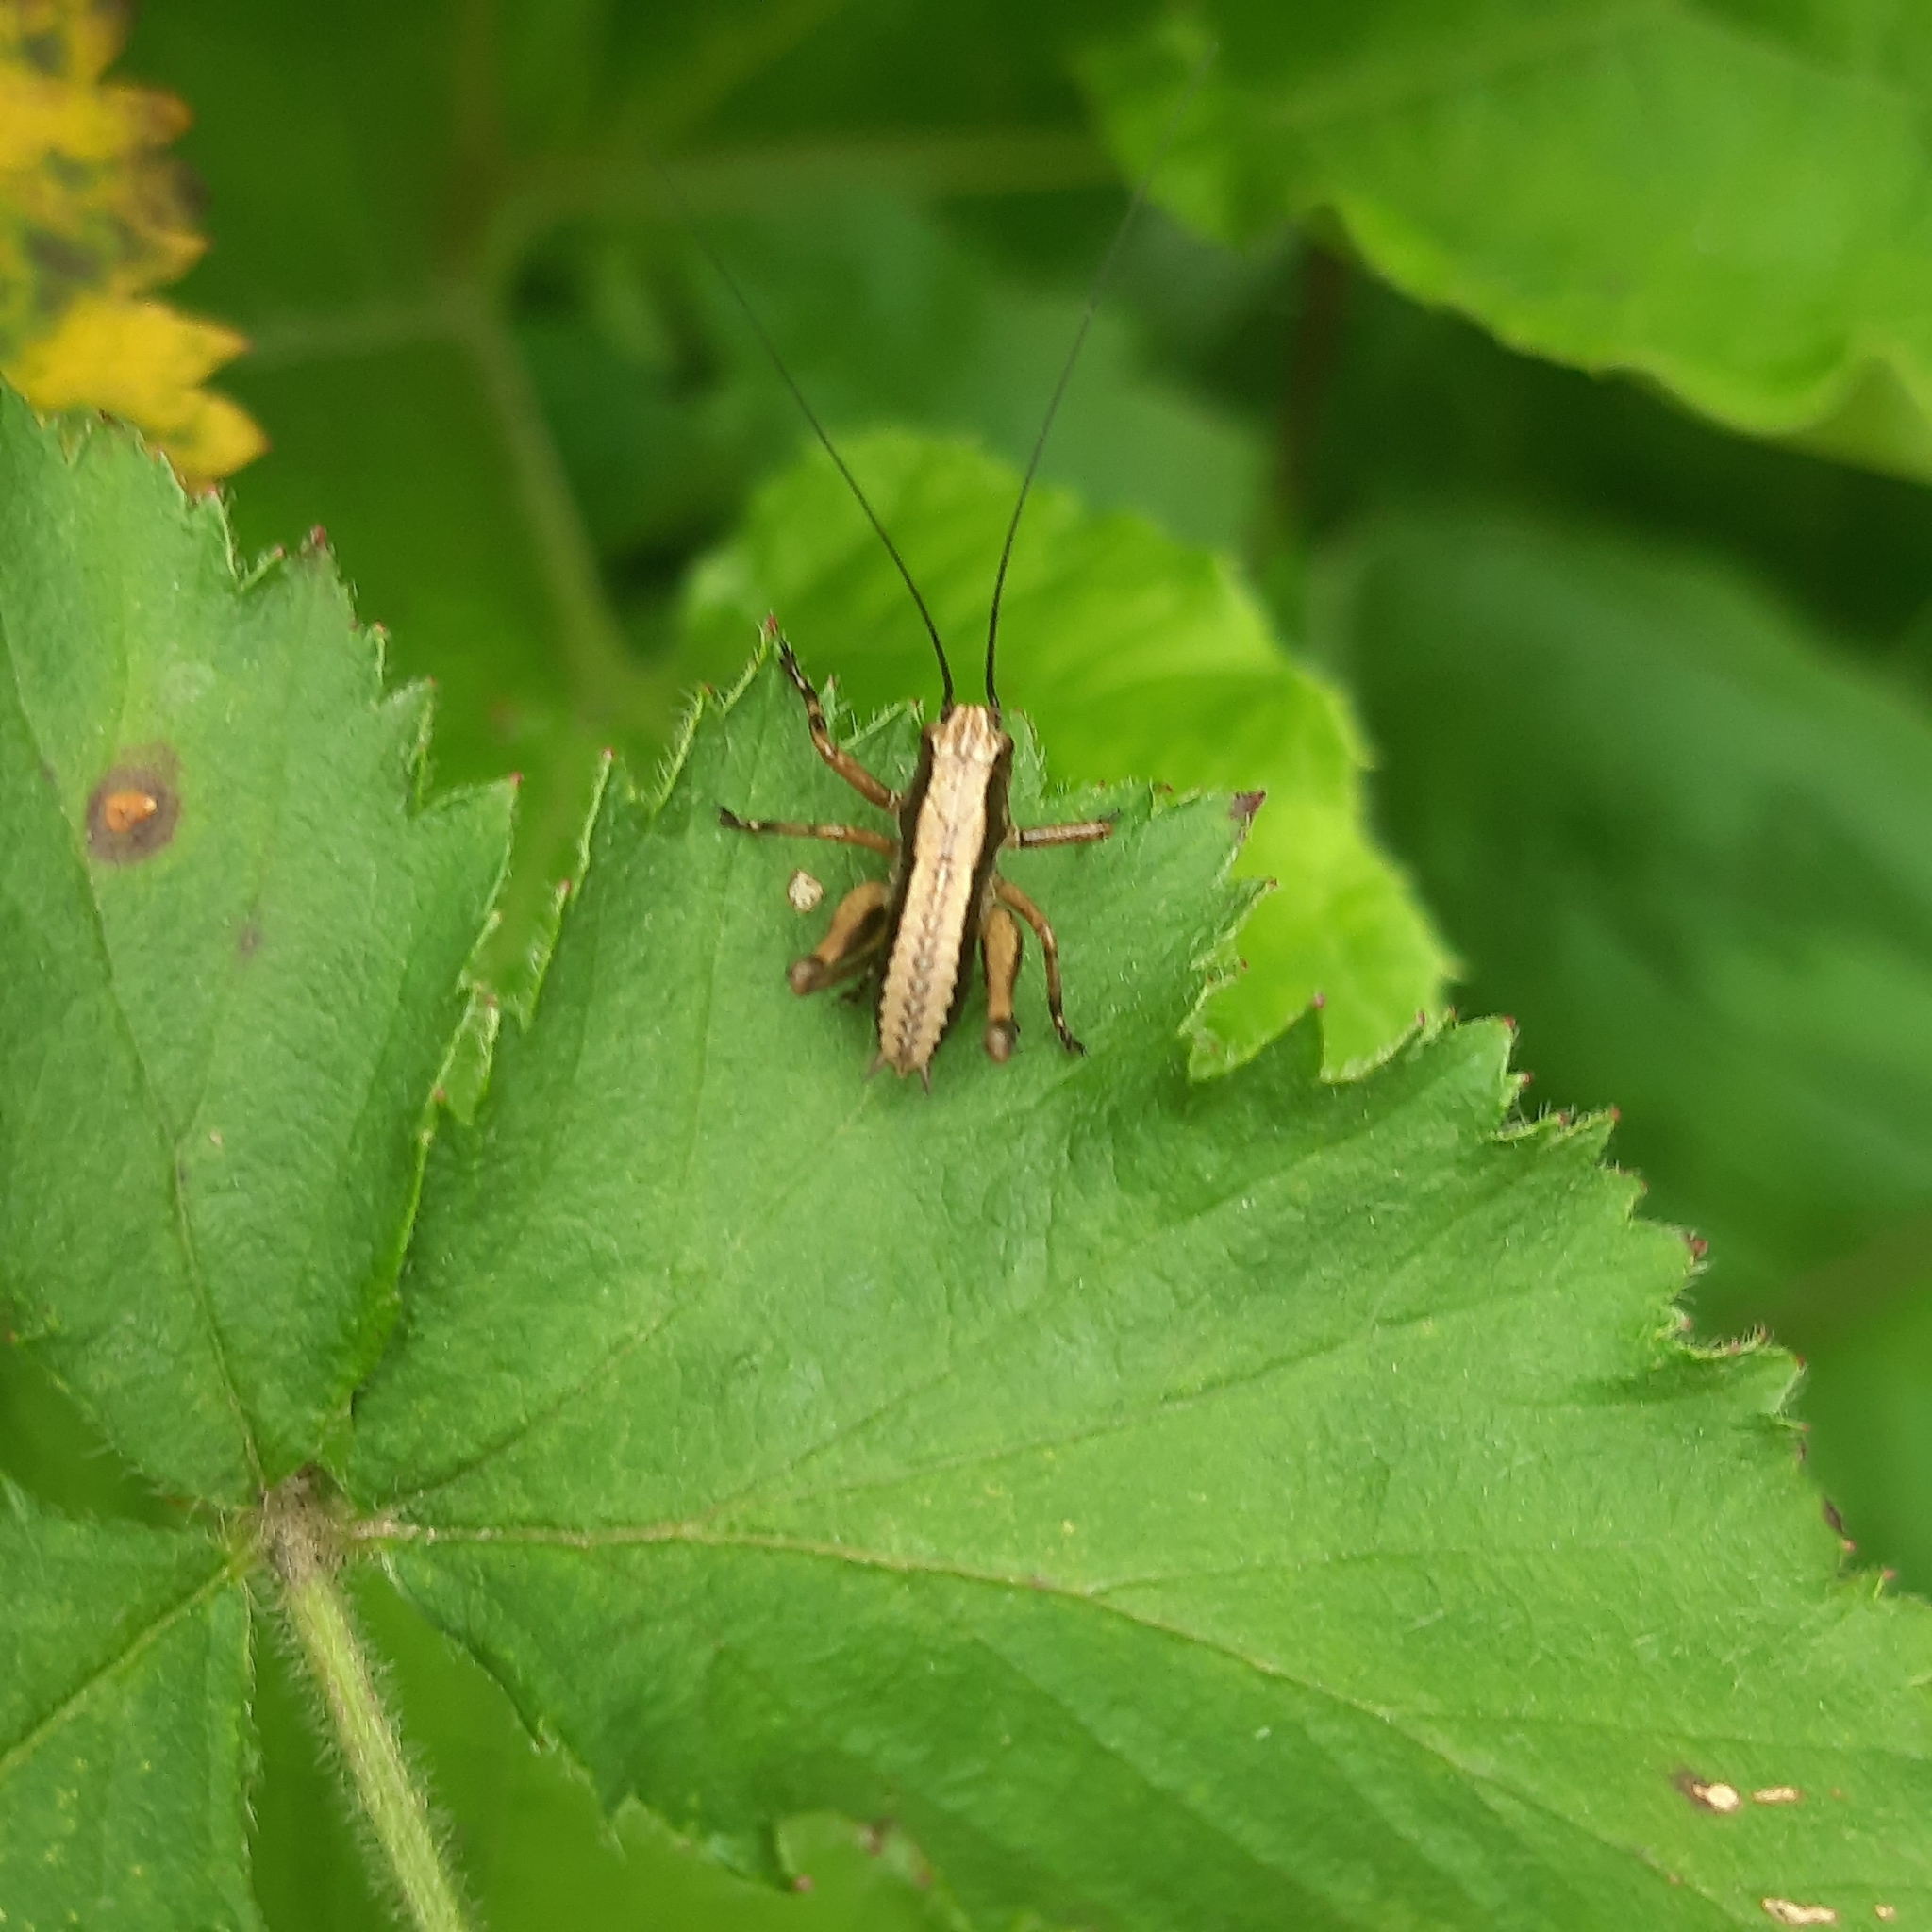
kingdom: Animalia
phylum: Arthropoda
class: Insecta
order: Orthoptera
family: Tettigoniidae
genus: Pholidoptera
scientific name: Pholidoptera griseoaptera
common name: Dark bush-cricket
